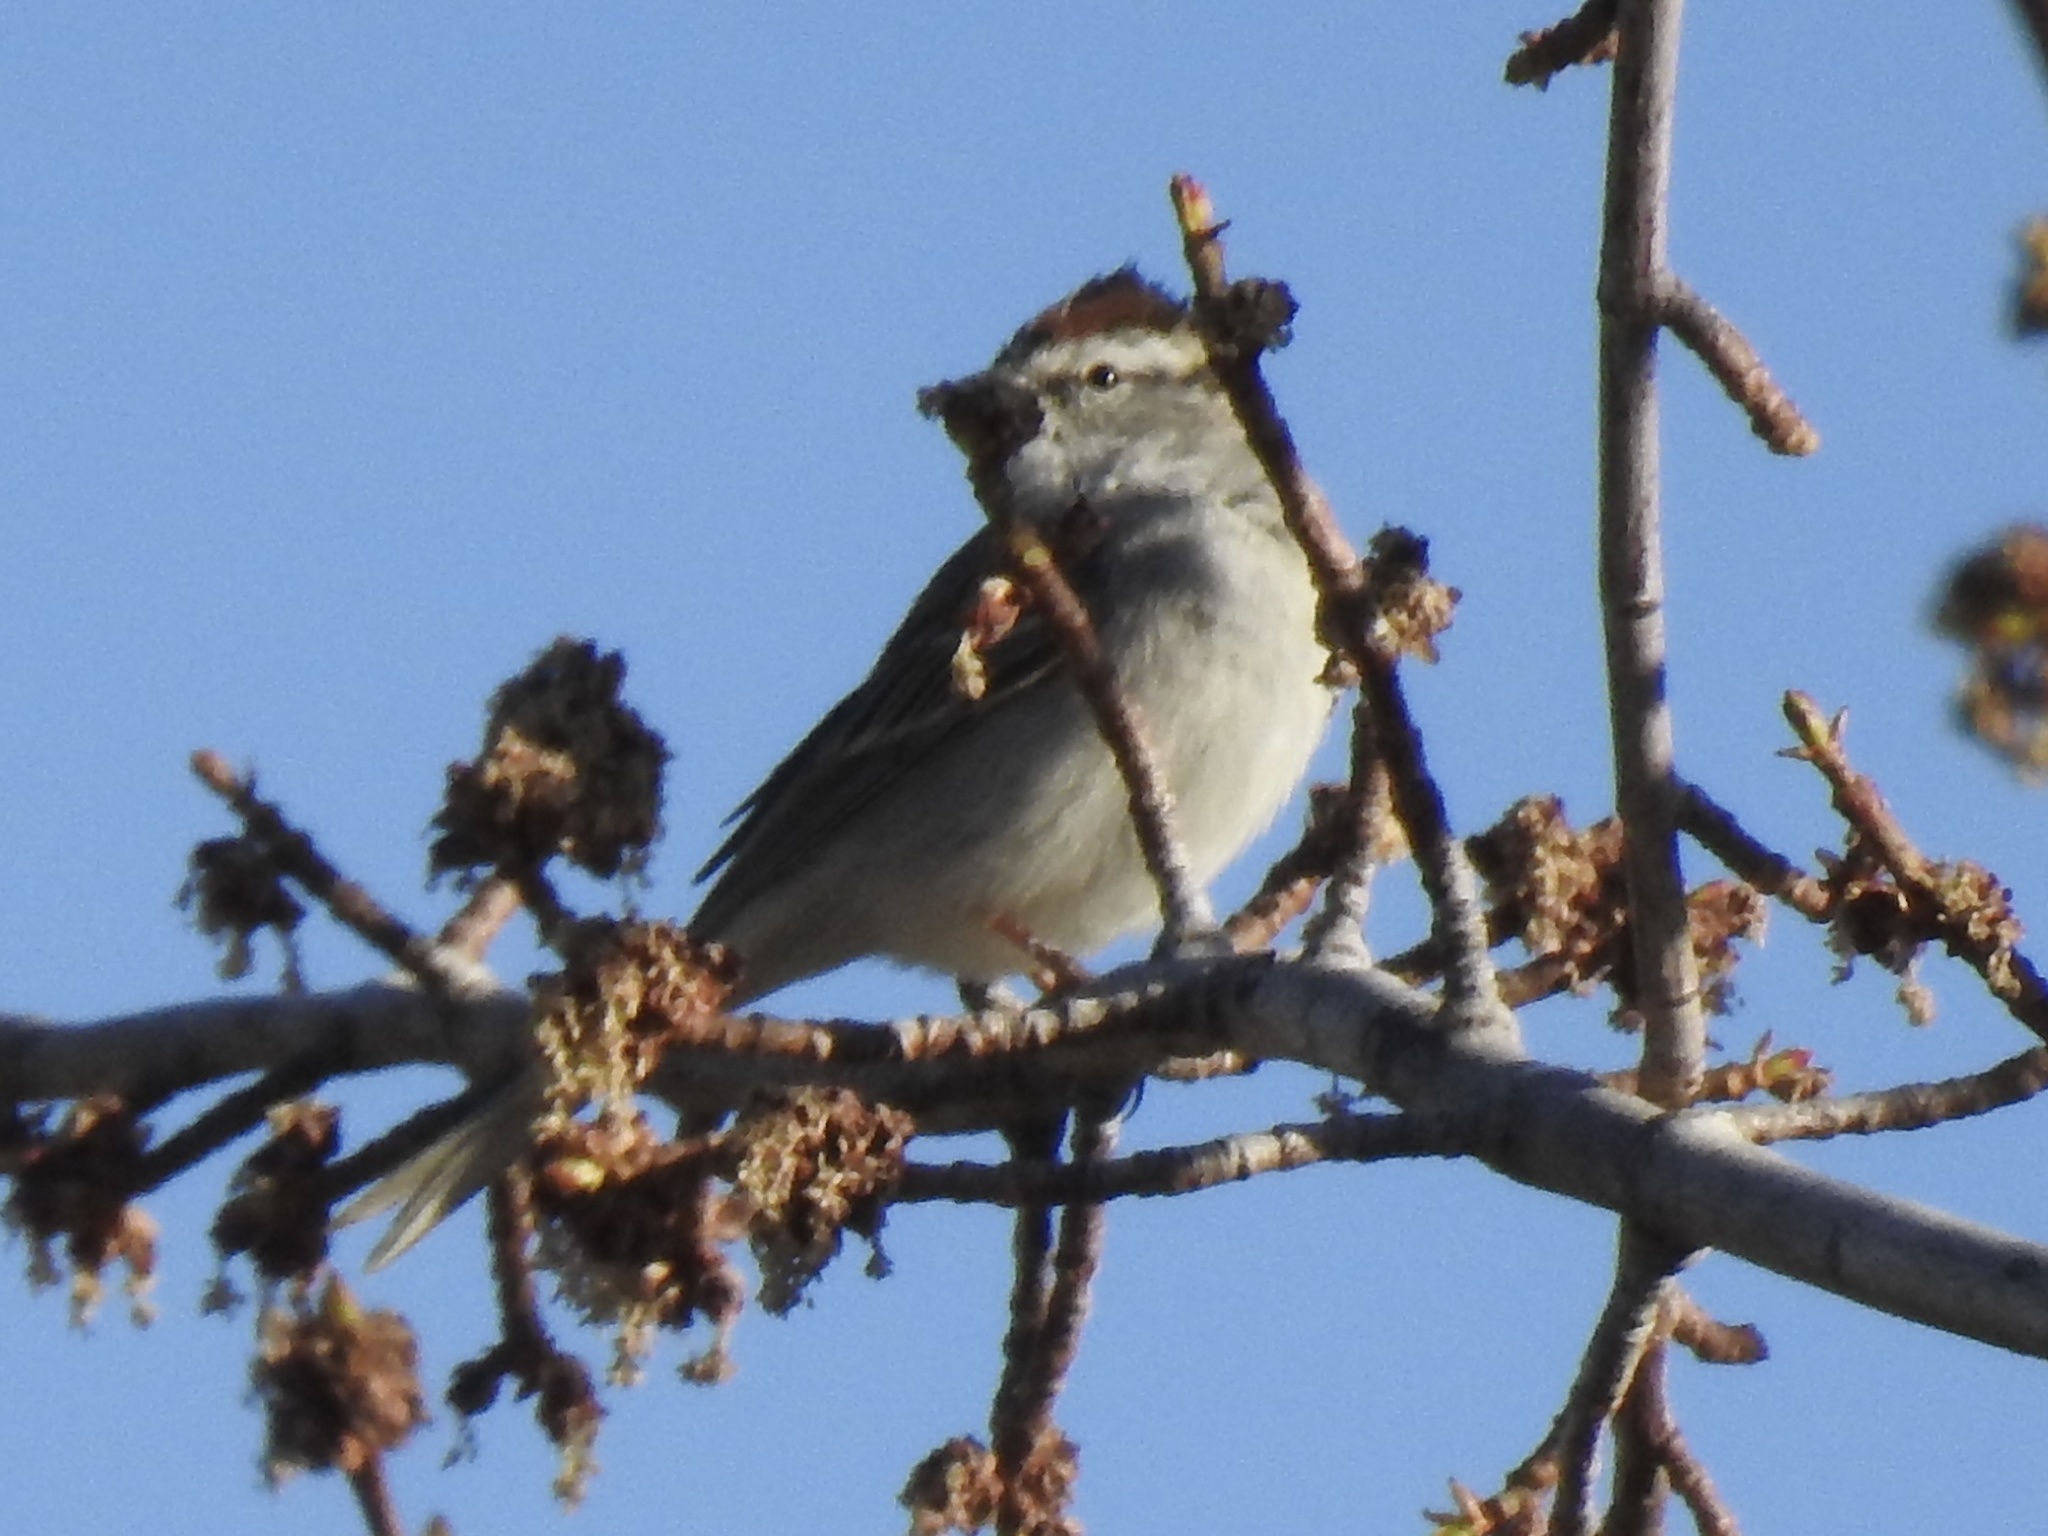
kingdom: Animalia
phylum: Chordata
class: Aves
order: Passeriformes
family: Passerellidae
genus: Spizella
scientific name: Spizella passerina
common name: Chipping sparrow
